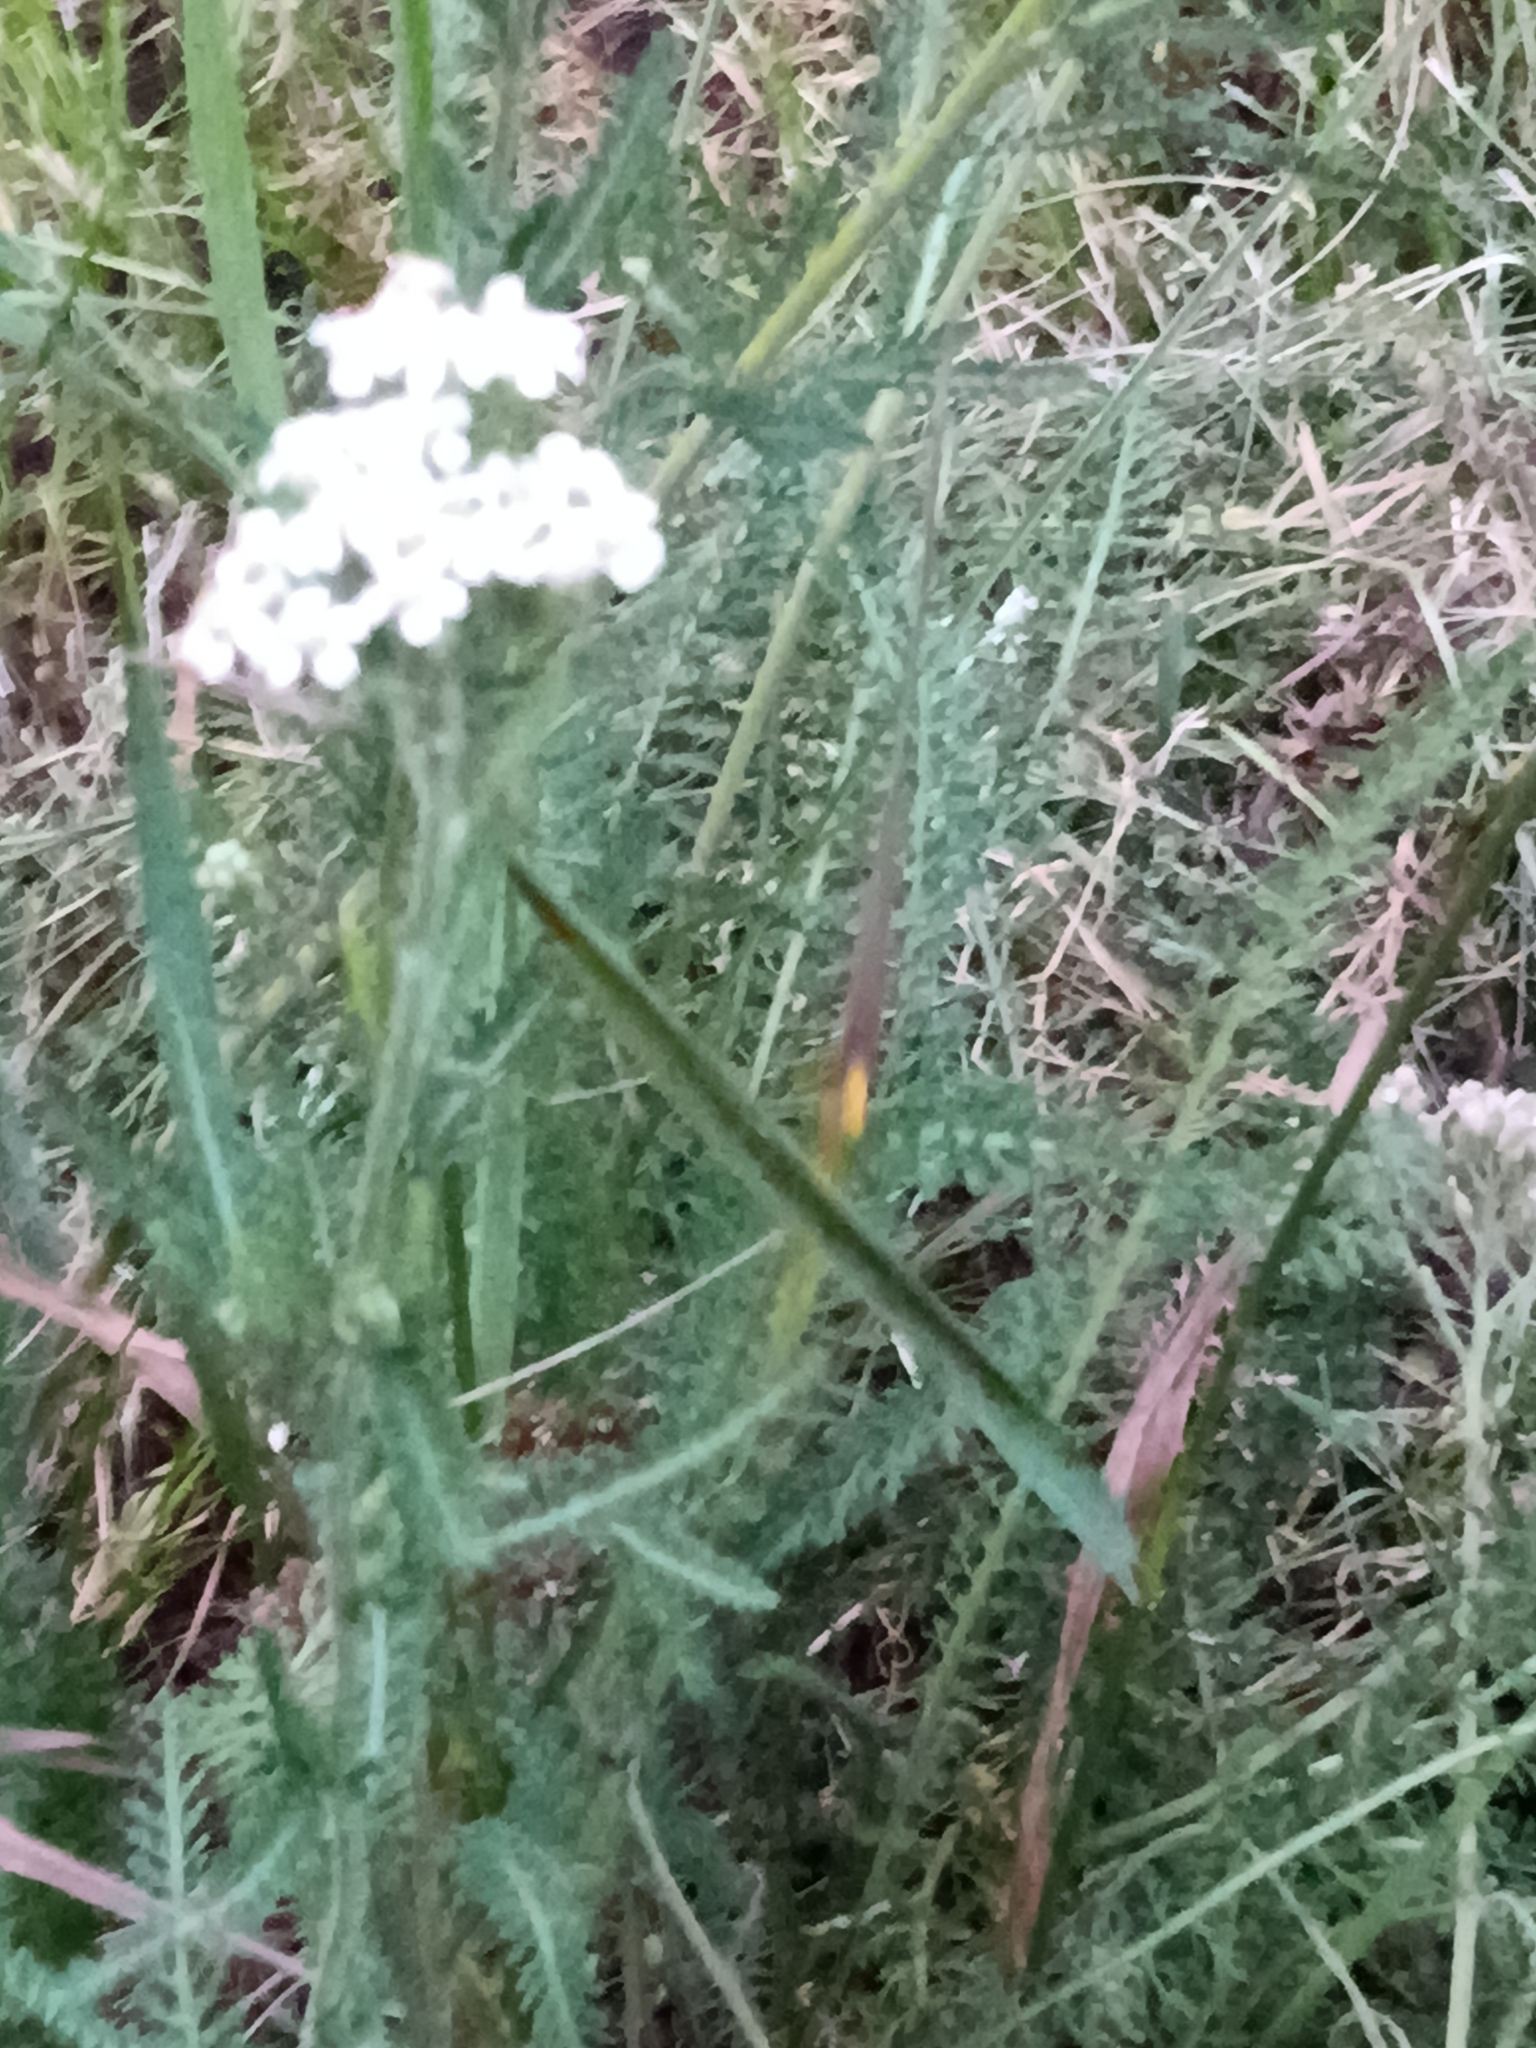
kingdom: Plantae
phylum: Tracheophyta
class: Magnoliopsida
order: Asterales
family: Asteraceae
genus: Achillea
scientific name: Achillea millefolium
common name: Yarrow
